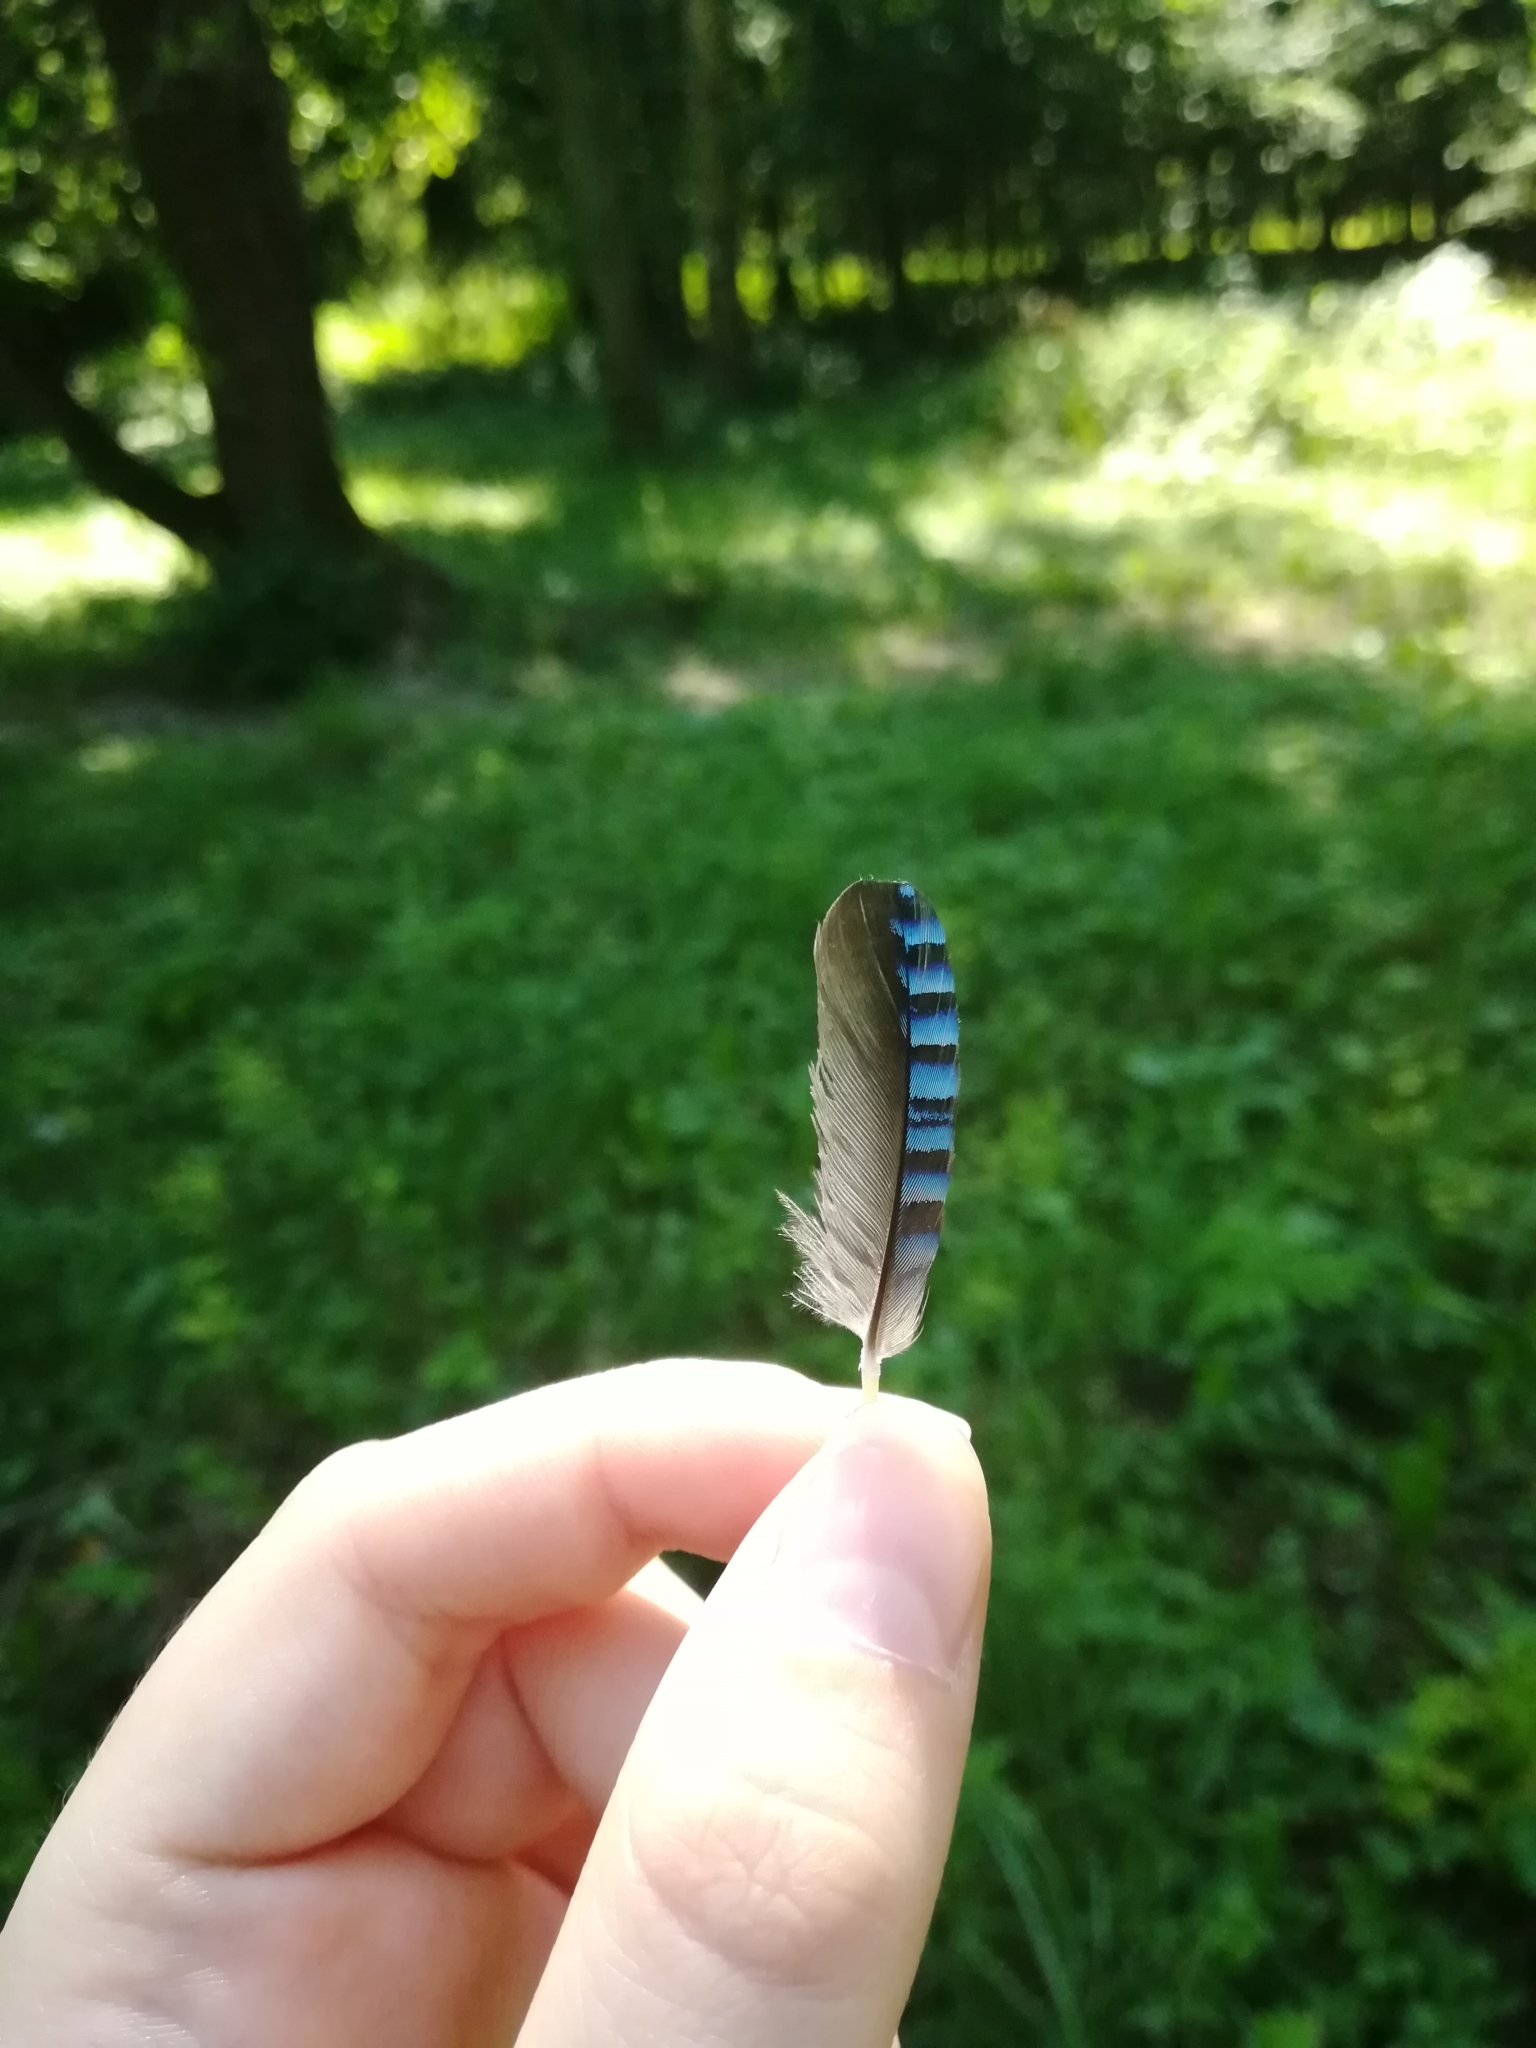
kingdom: Animalia
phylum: Chordata
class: Aves
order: Passeriformes
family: Corvidae
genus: Garrulus
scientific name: Garrulus glandarius
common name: Eurasian jay
